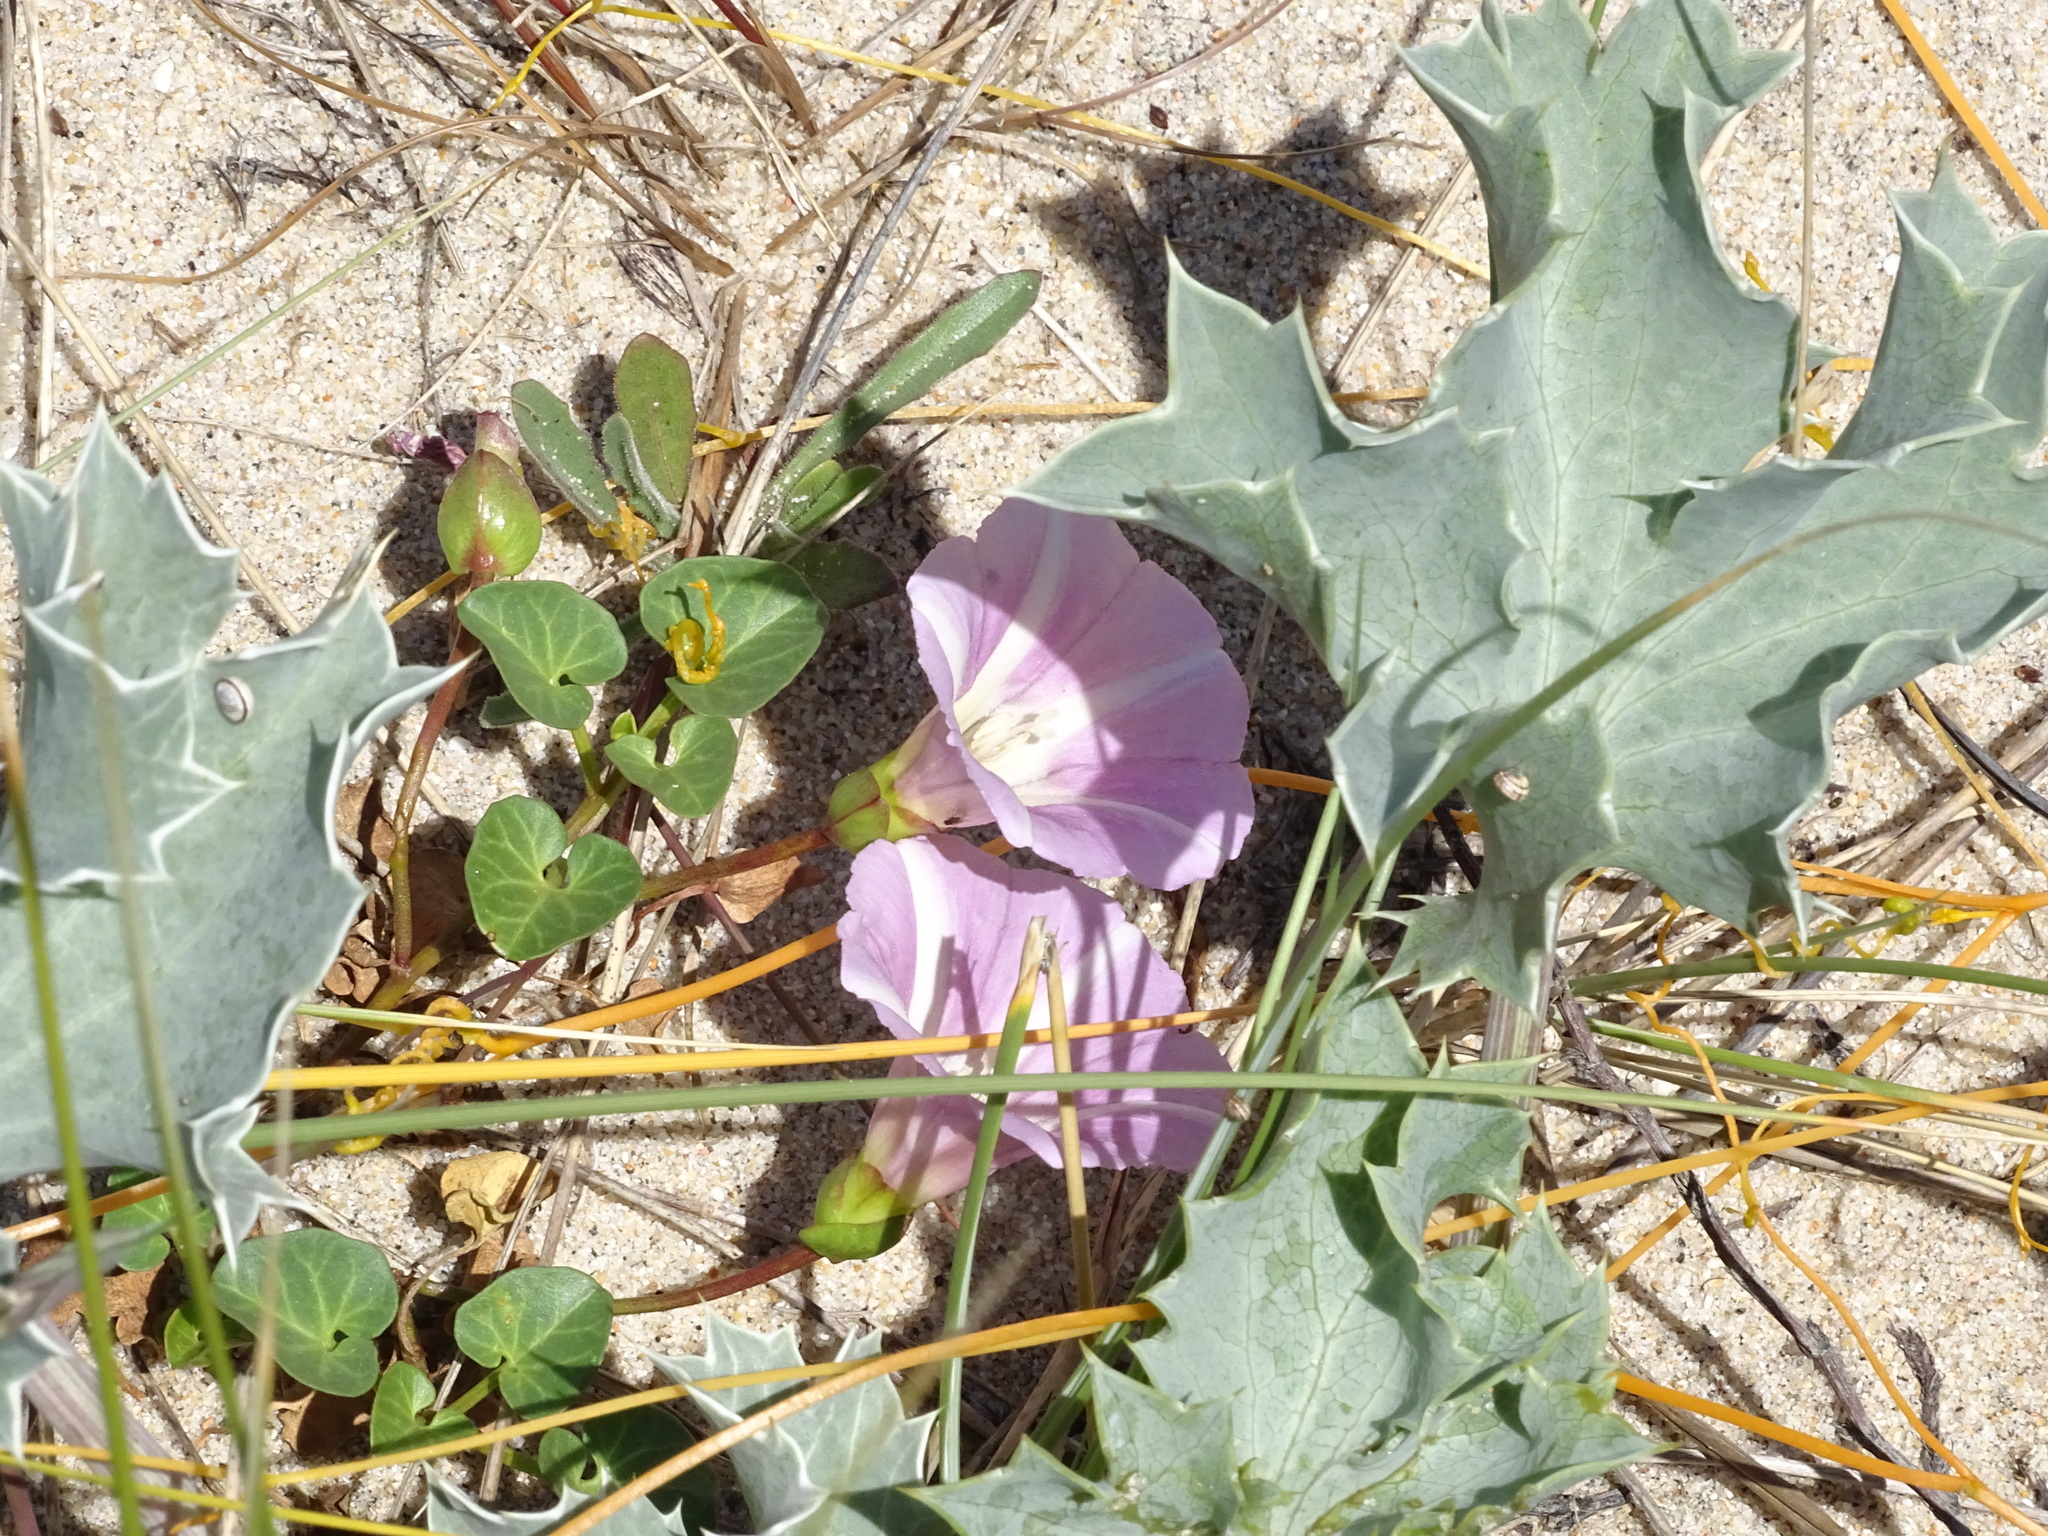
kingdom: Plantae
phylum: Tracheophyta
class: Magnoliopsida
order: Solanales
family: Convolvulaceae
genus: Calystegia
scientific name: Calystegia soldanella
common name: Sea bindweed
